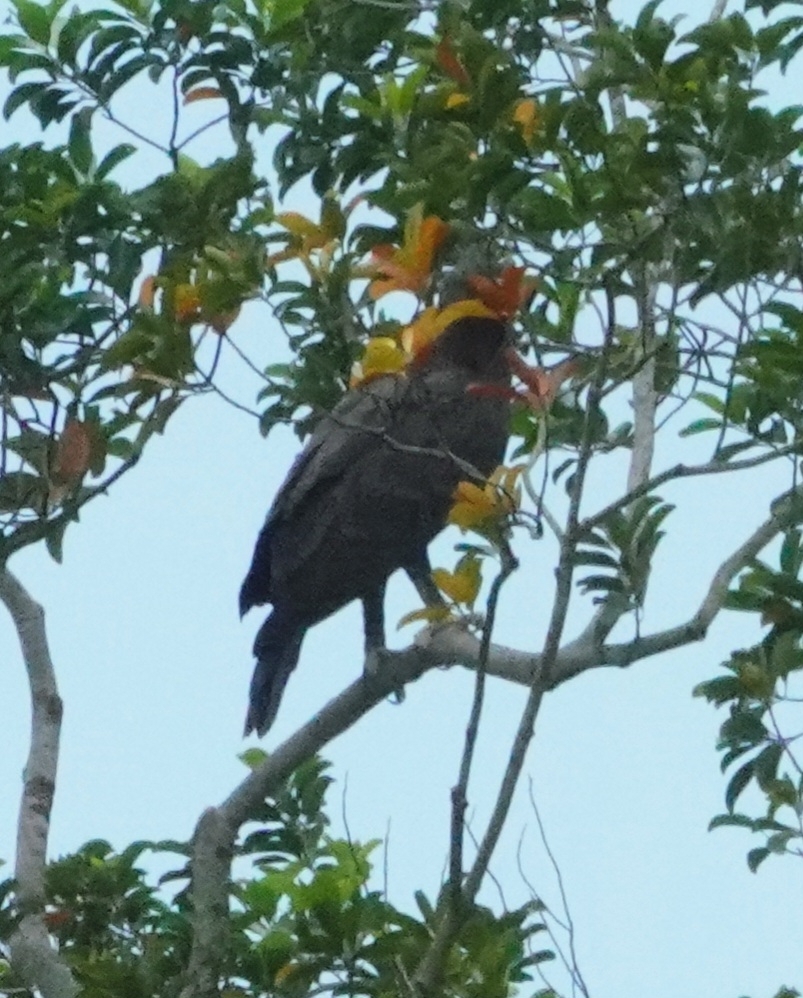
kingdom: Animalia
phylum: Chordata
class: Aves
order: Accipitriformes
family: Accipitridae
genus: Nisaetus
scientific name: Nisaetus cirrhatus
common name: Changeable hawk-eagle
